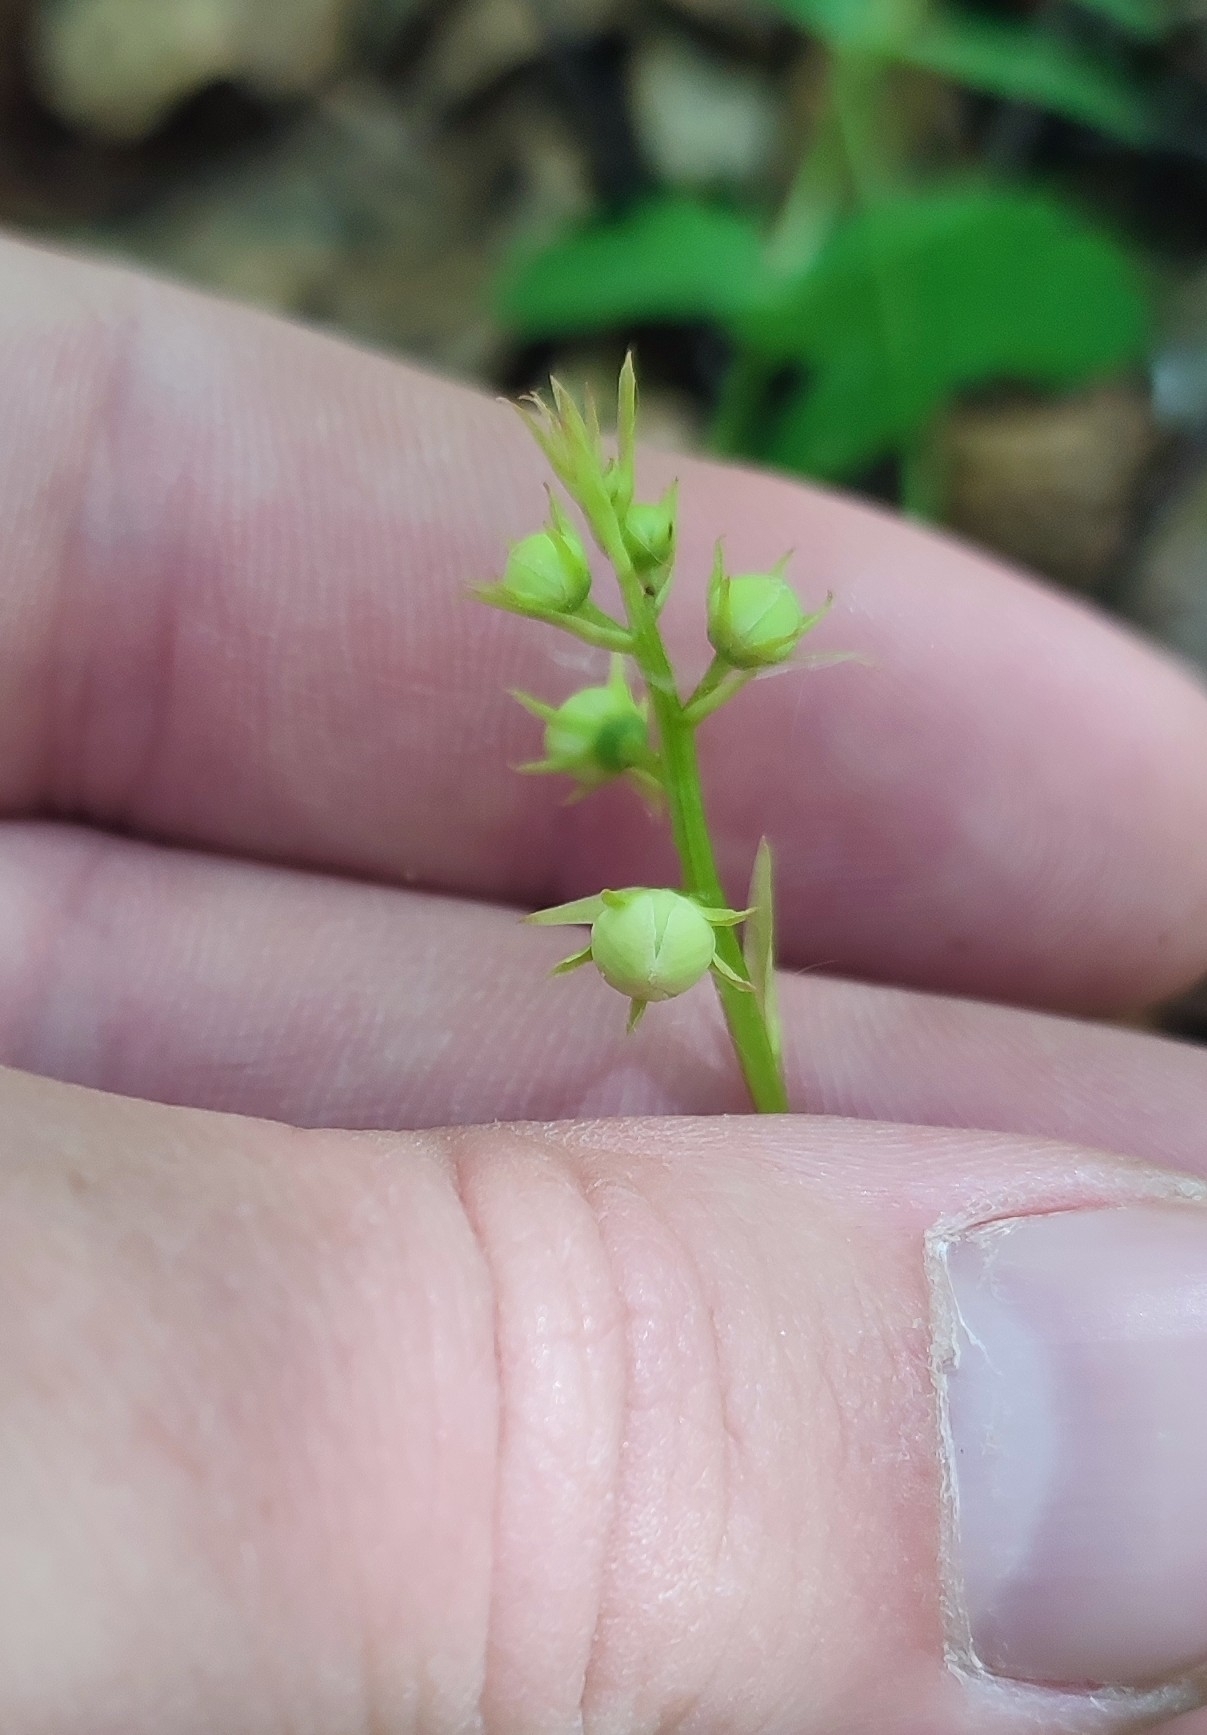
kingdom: Plantae
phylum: Tracheophyta
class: Magnoliopsida
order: Ericales
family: Ericaceae
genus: Pyrola
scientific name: Pyrola rotundifolia
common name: Round-leaved wintergreen
